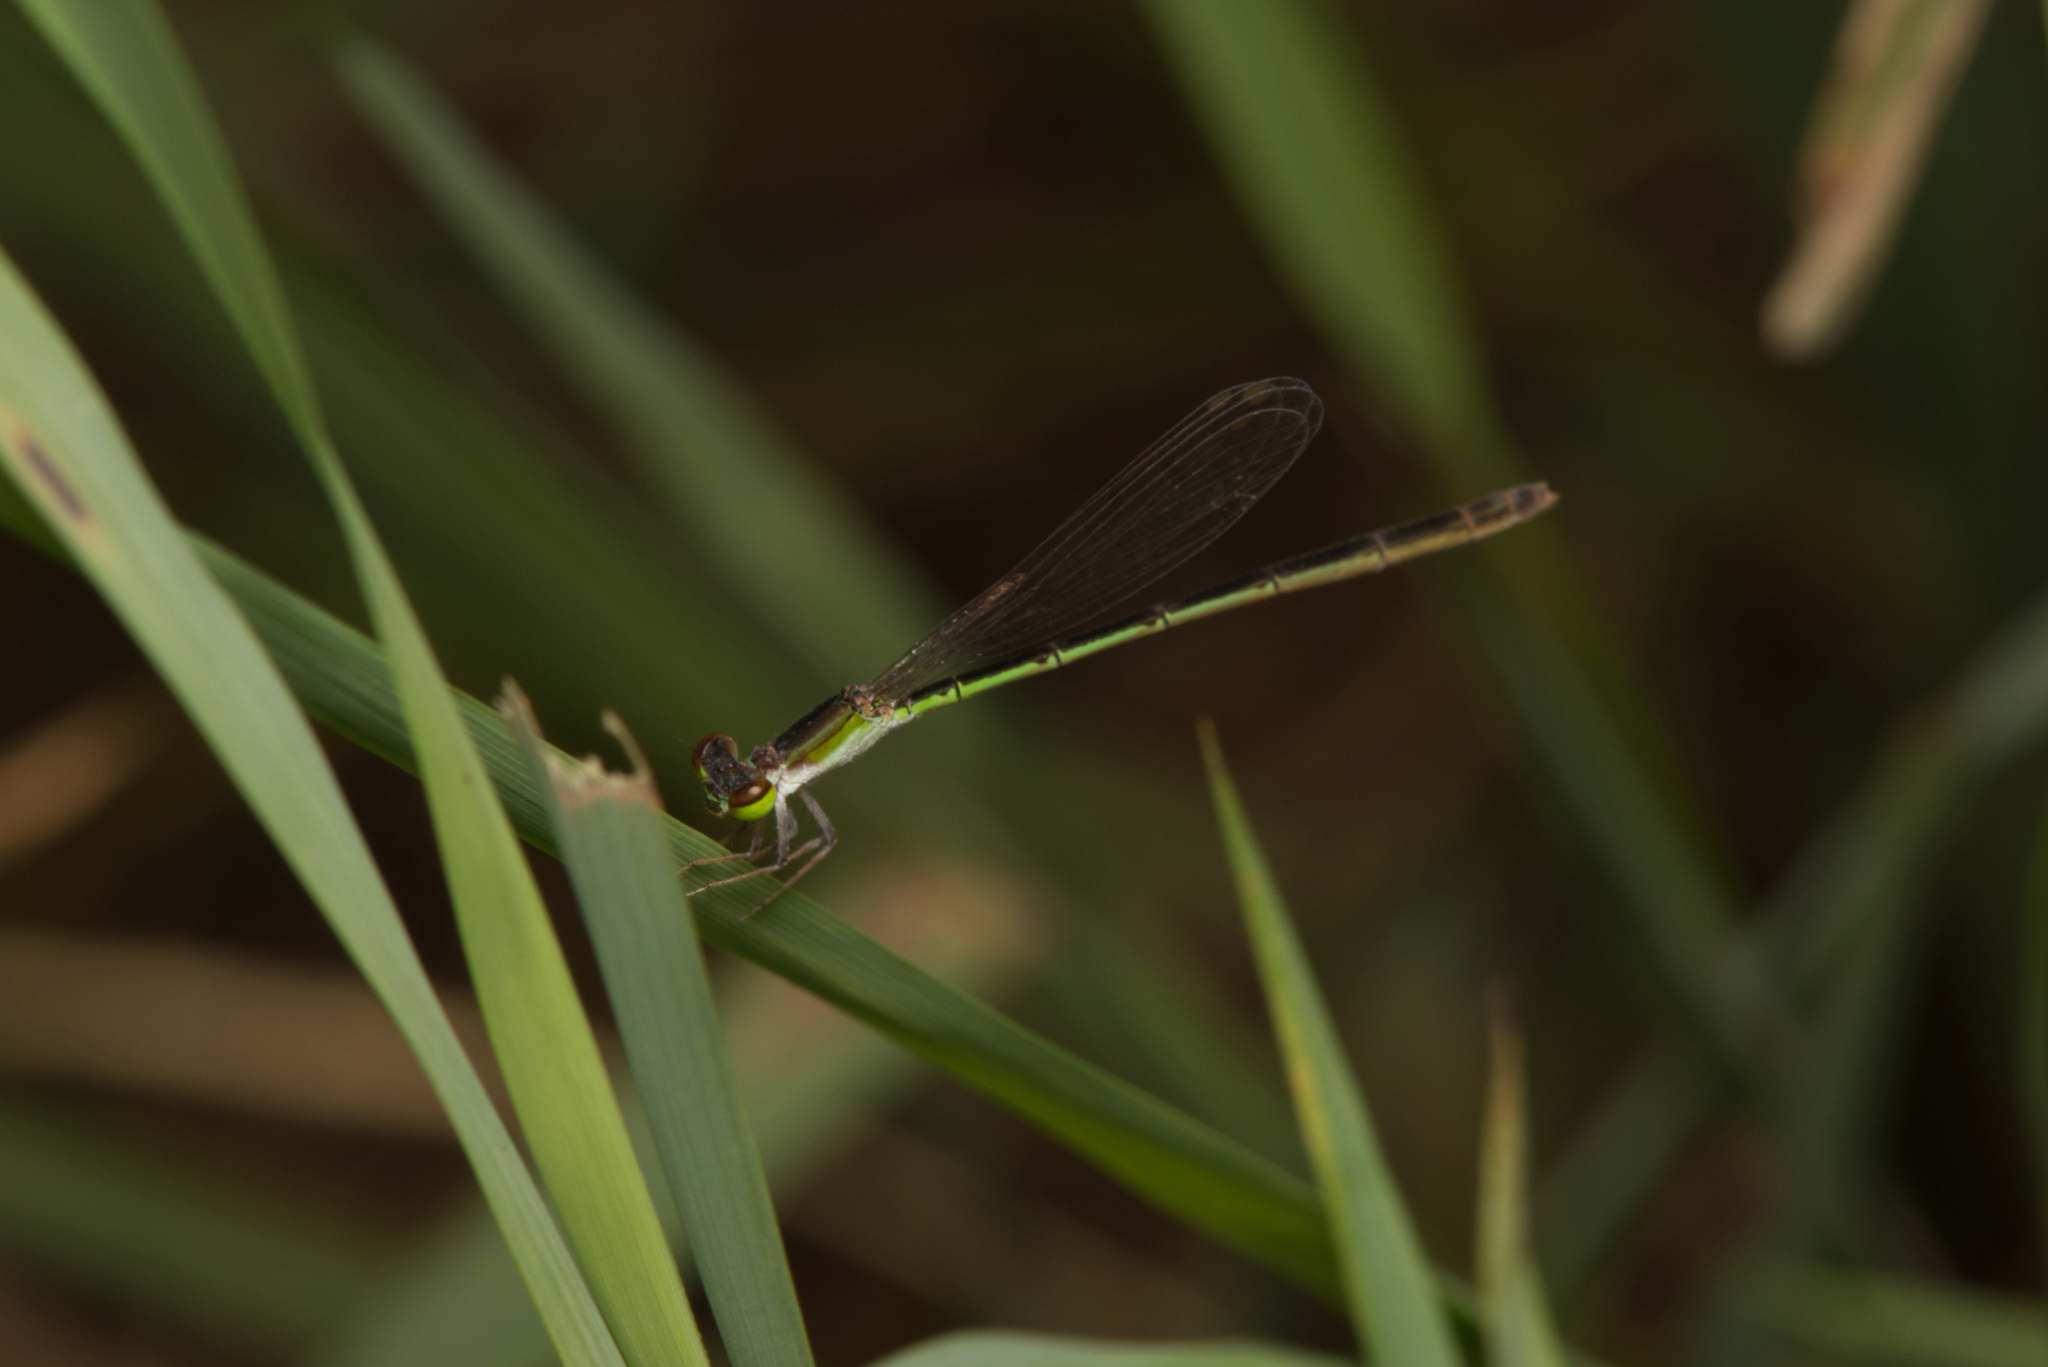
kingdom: Animalia
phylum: Arthropoda
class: Insecta
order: Odonata
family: Coenagrionidae
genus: Agriocnemis
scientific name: Agriocnemis pygmaea
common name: Pygmy wisp
